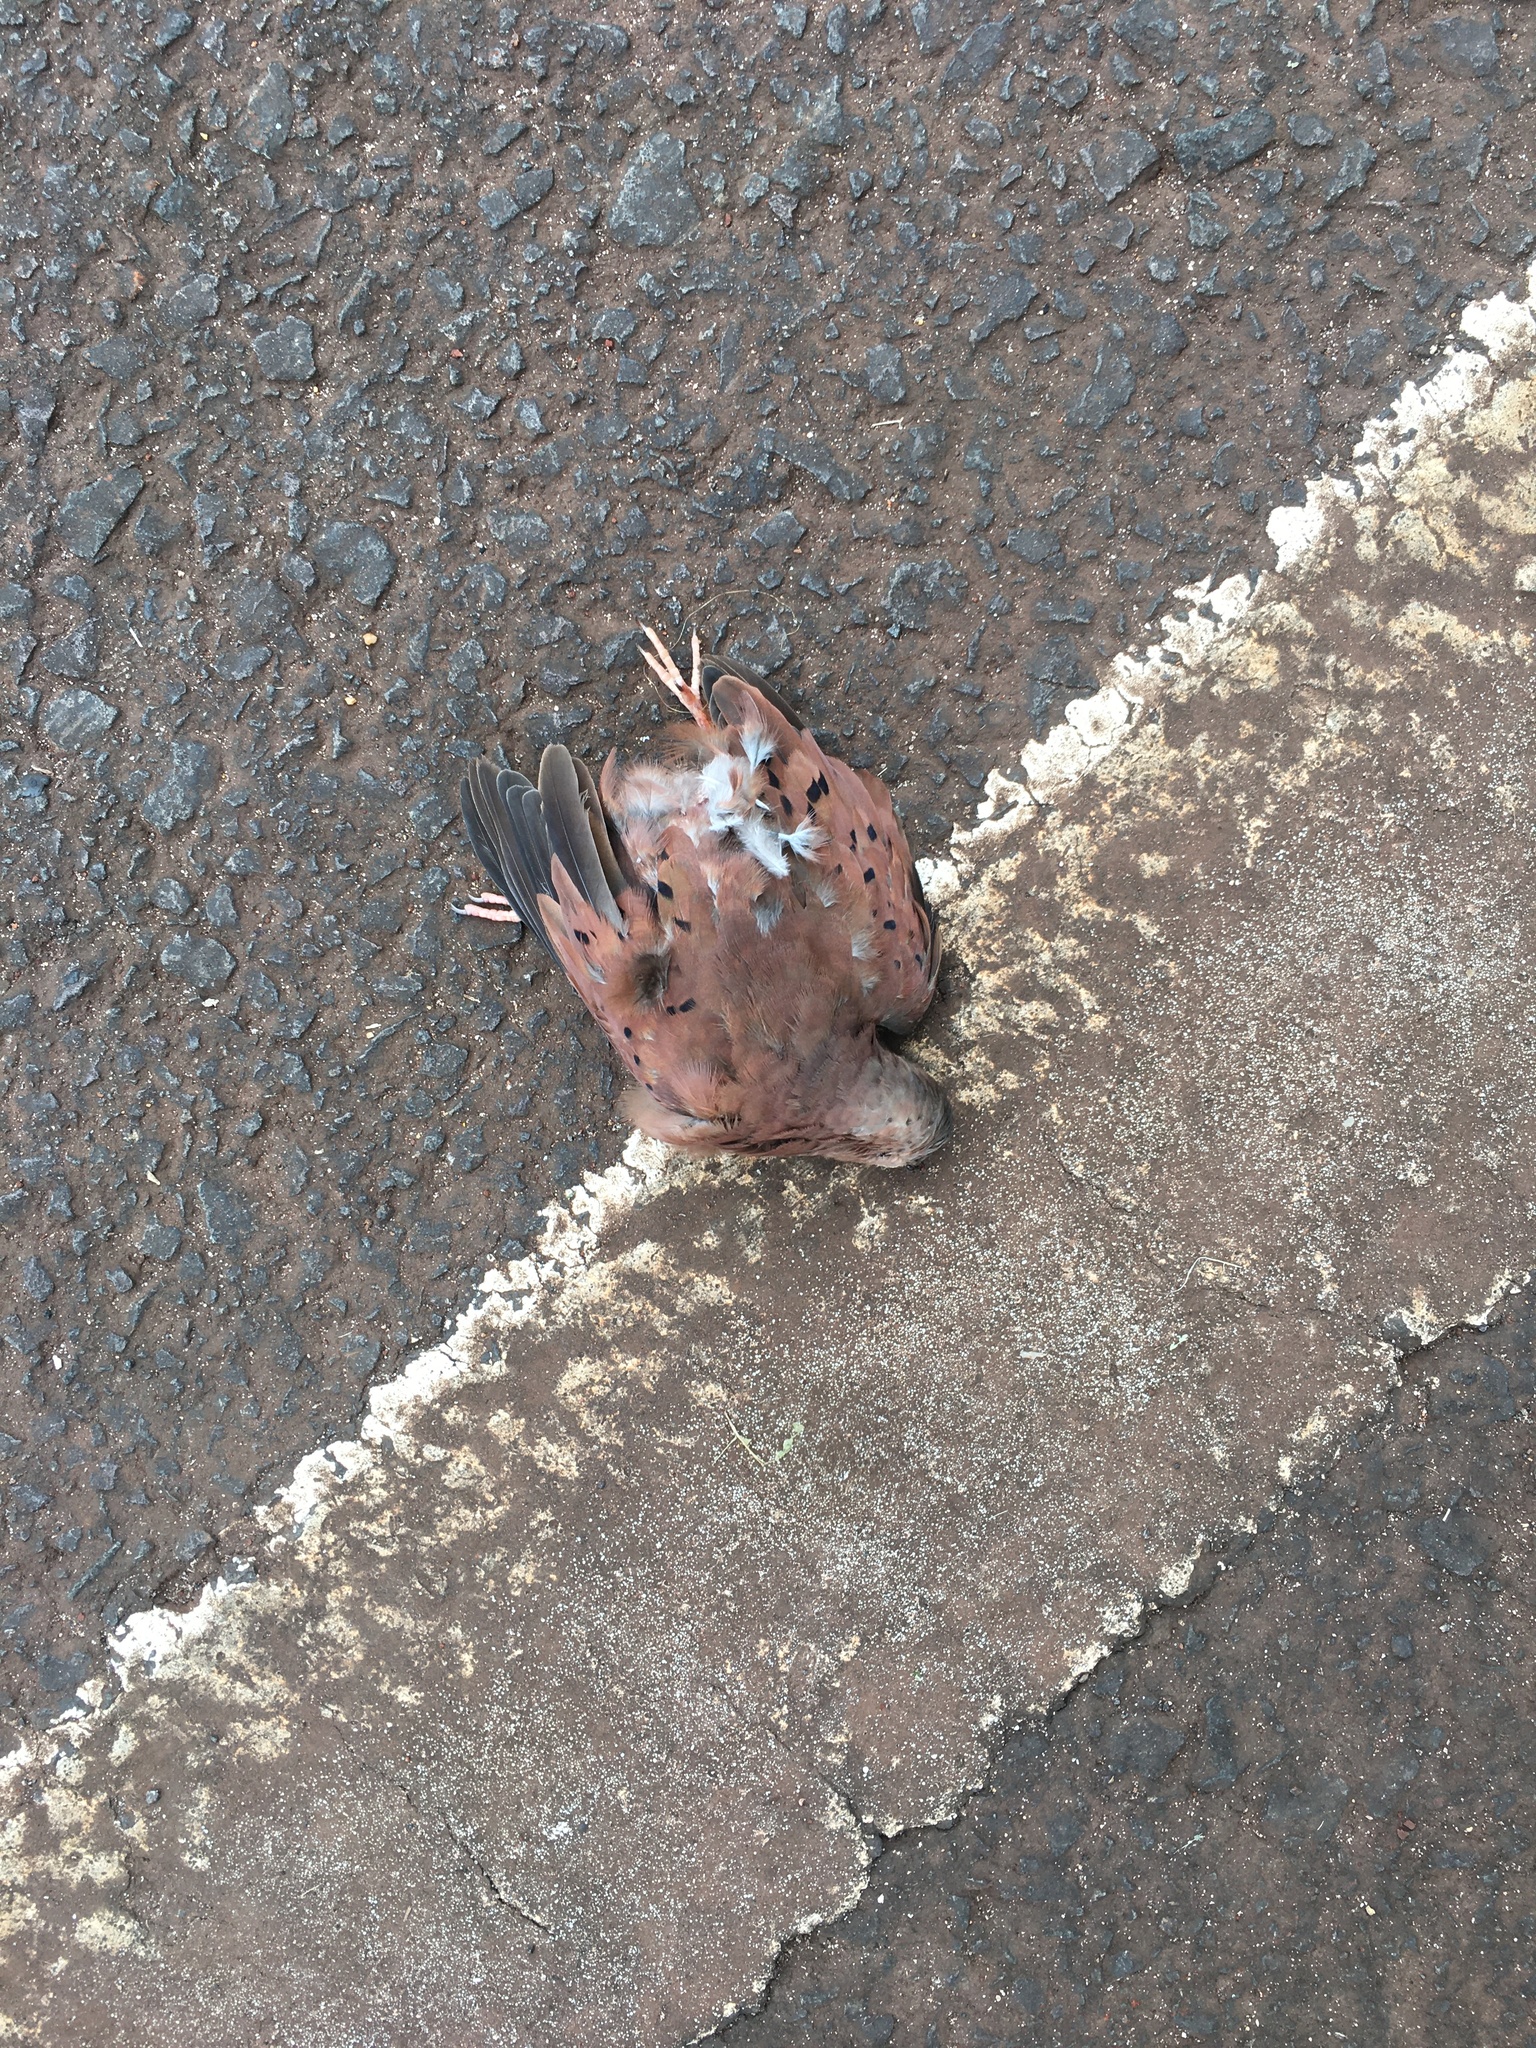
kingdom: Animalia
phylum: Chordata
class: Aves
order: Columbiformes
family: Columbidae
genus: Columbina
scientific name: Columbina talpacoti
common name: Ruddy ground dove
